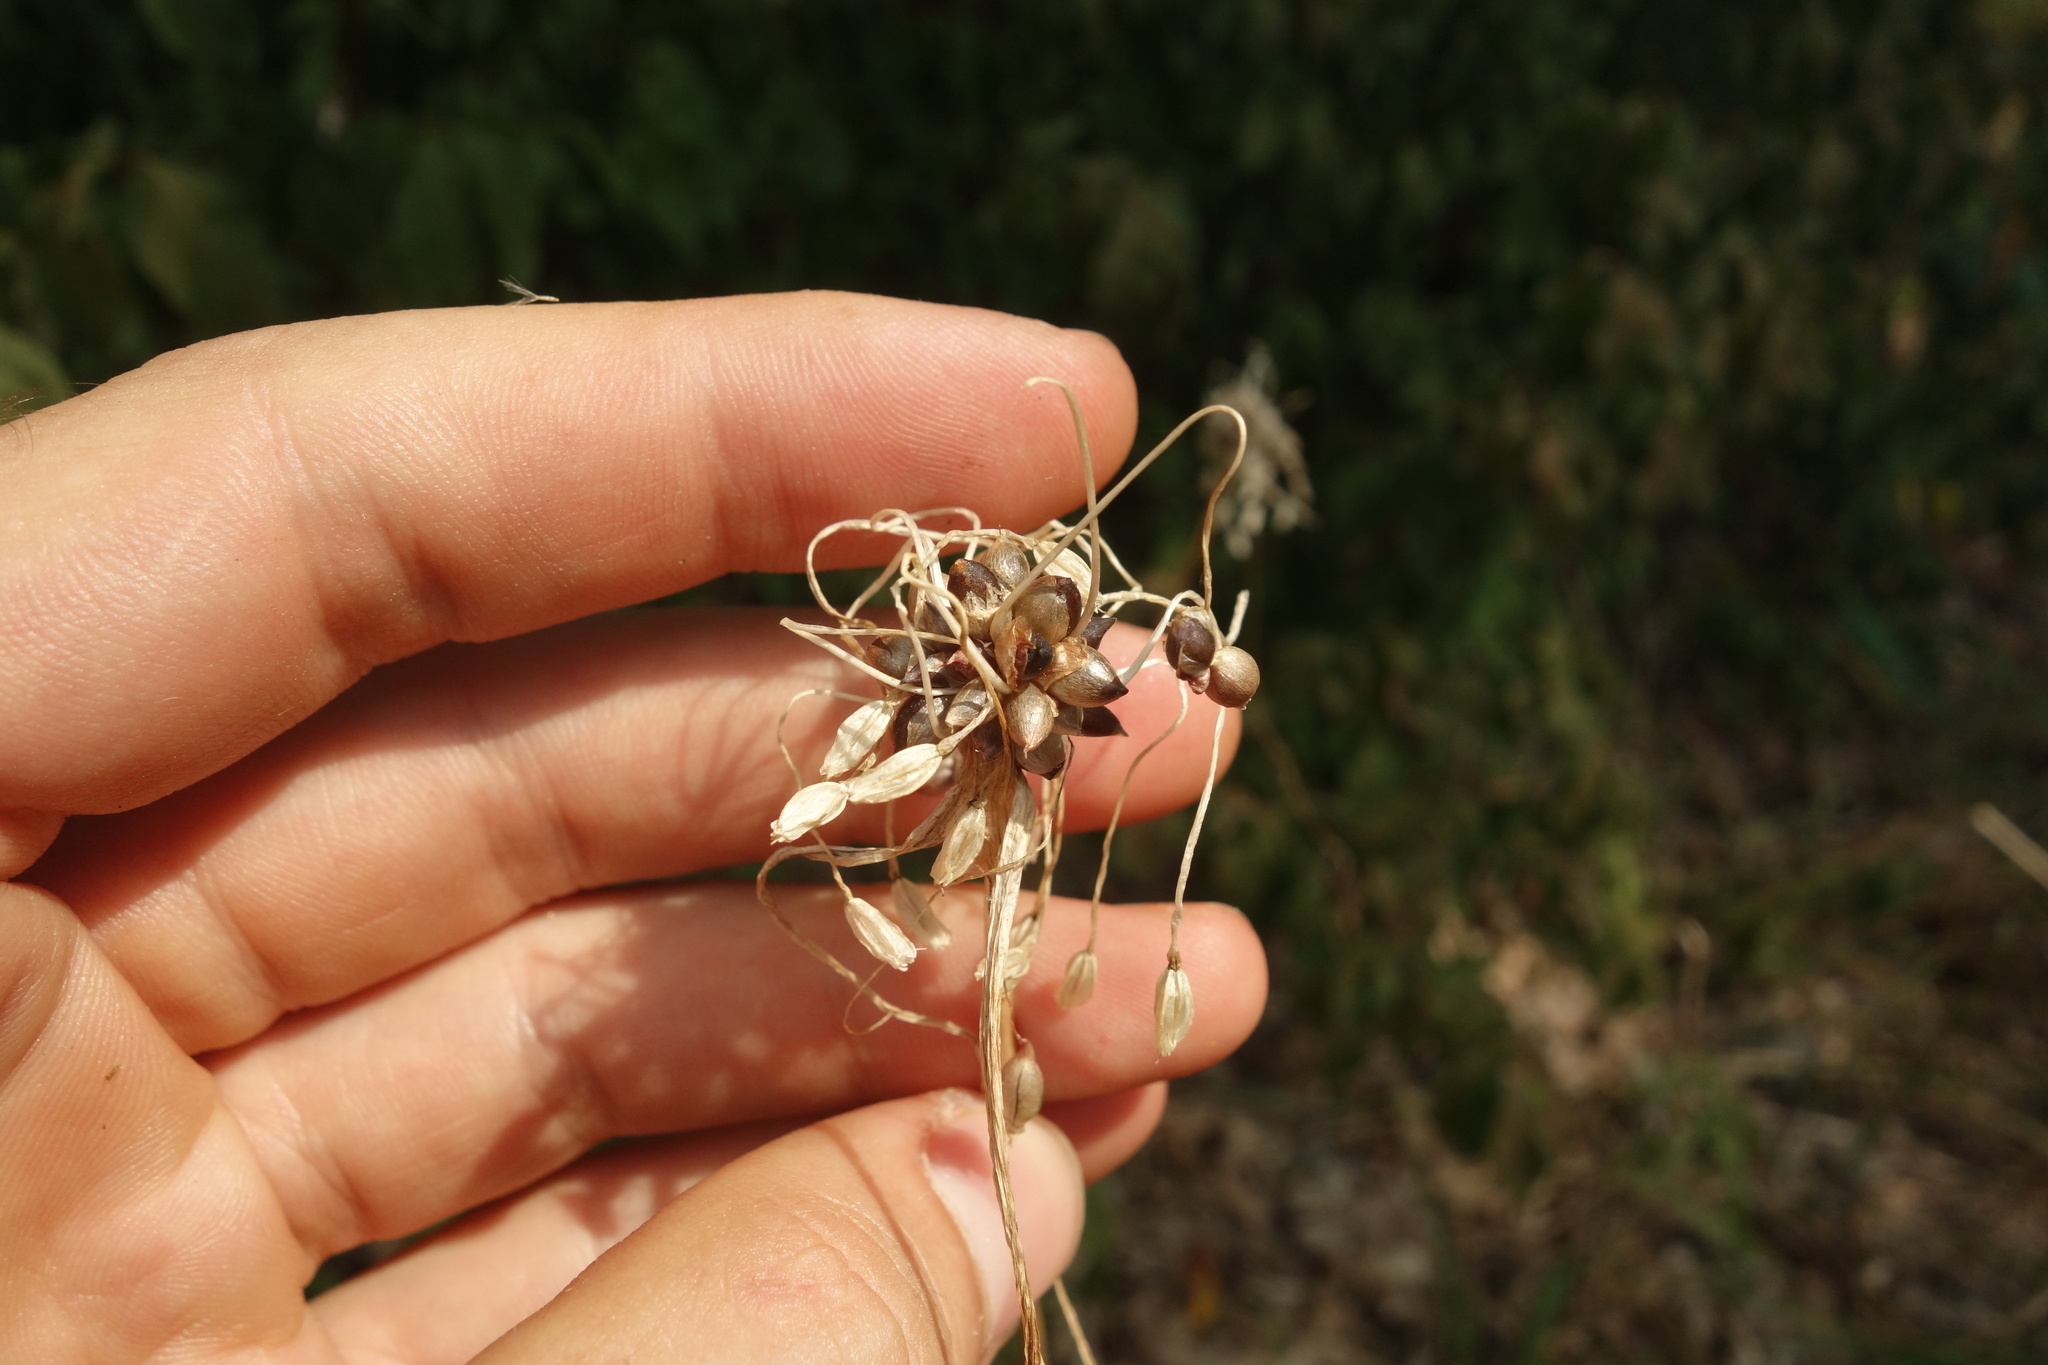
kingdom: Plantae
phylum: Tracheophyta
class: Liliopsida
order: Asparagales
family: Amaryllidaceae
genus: Allium
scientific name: Allium oleraceum
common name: Field garlic
